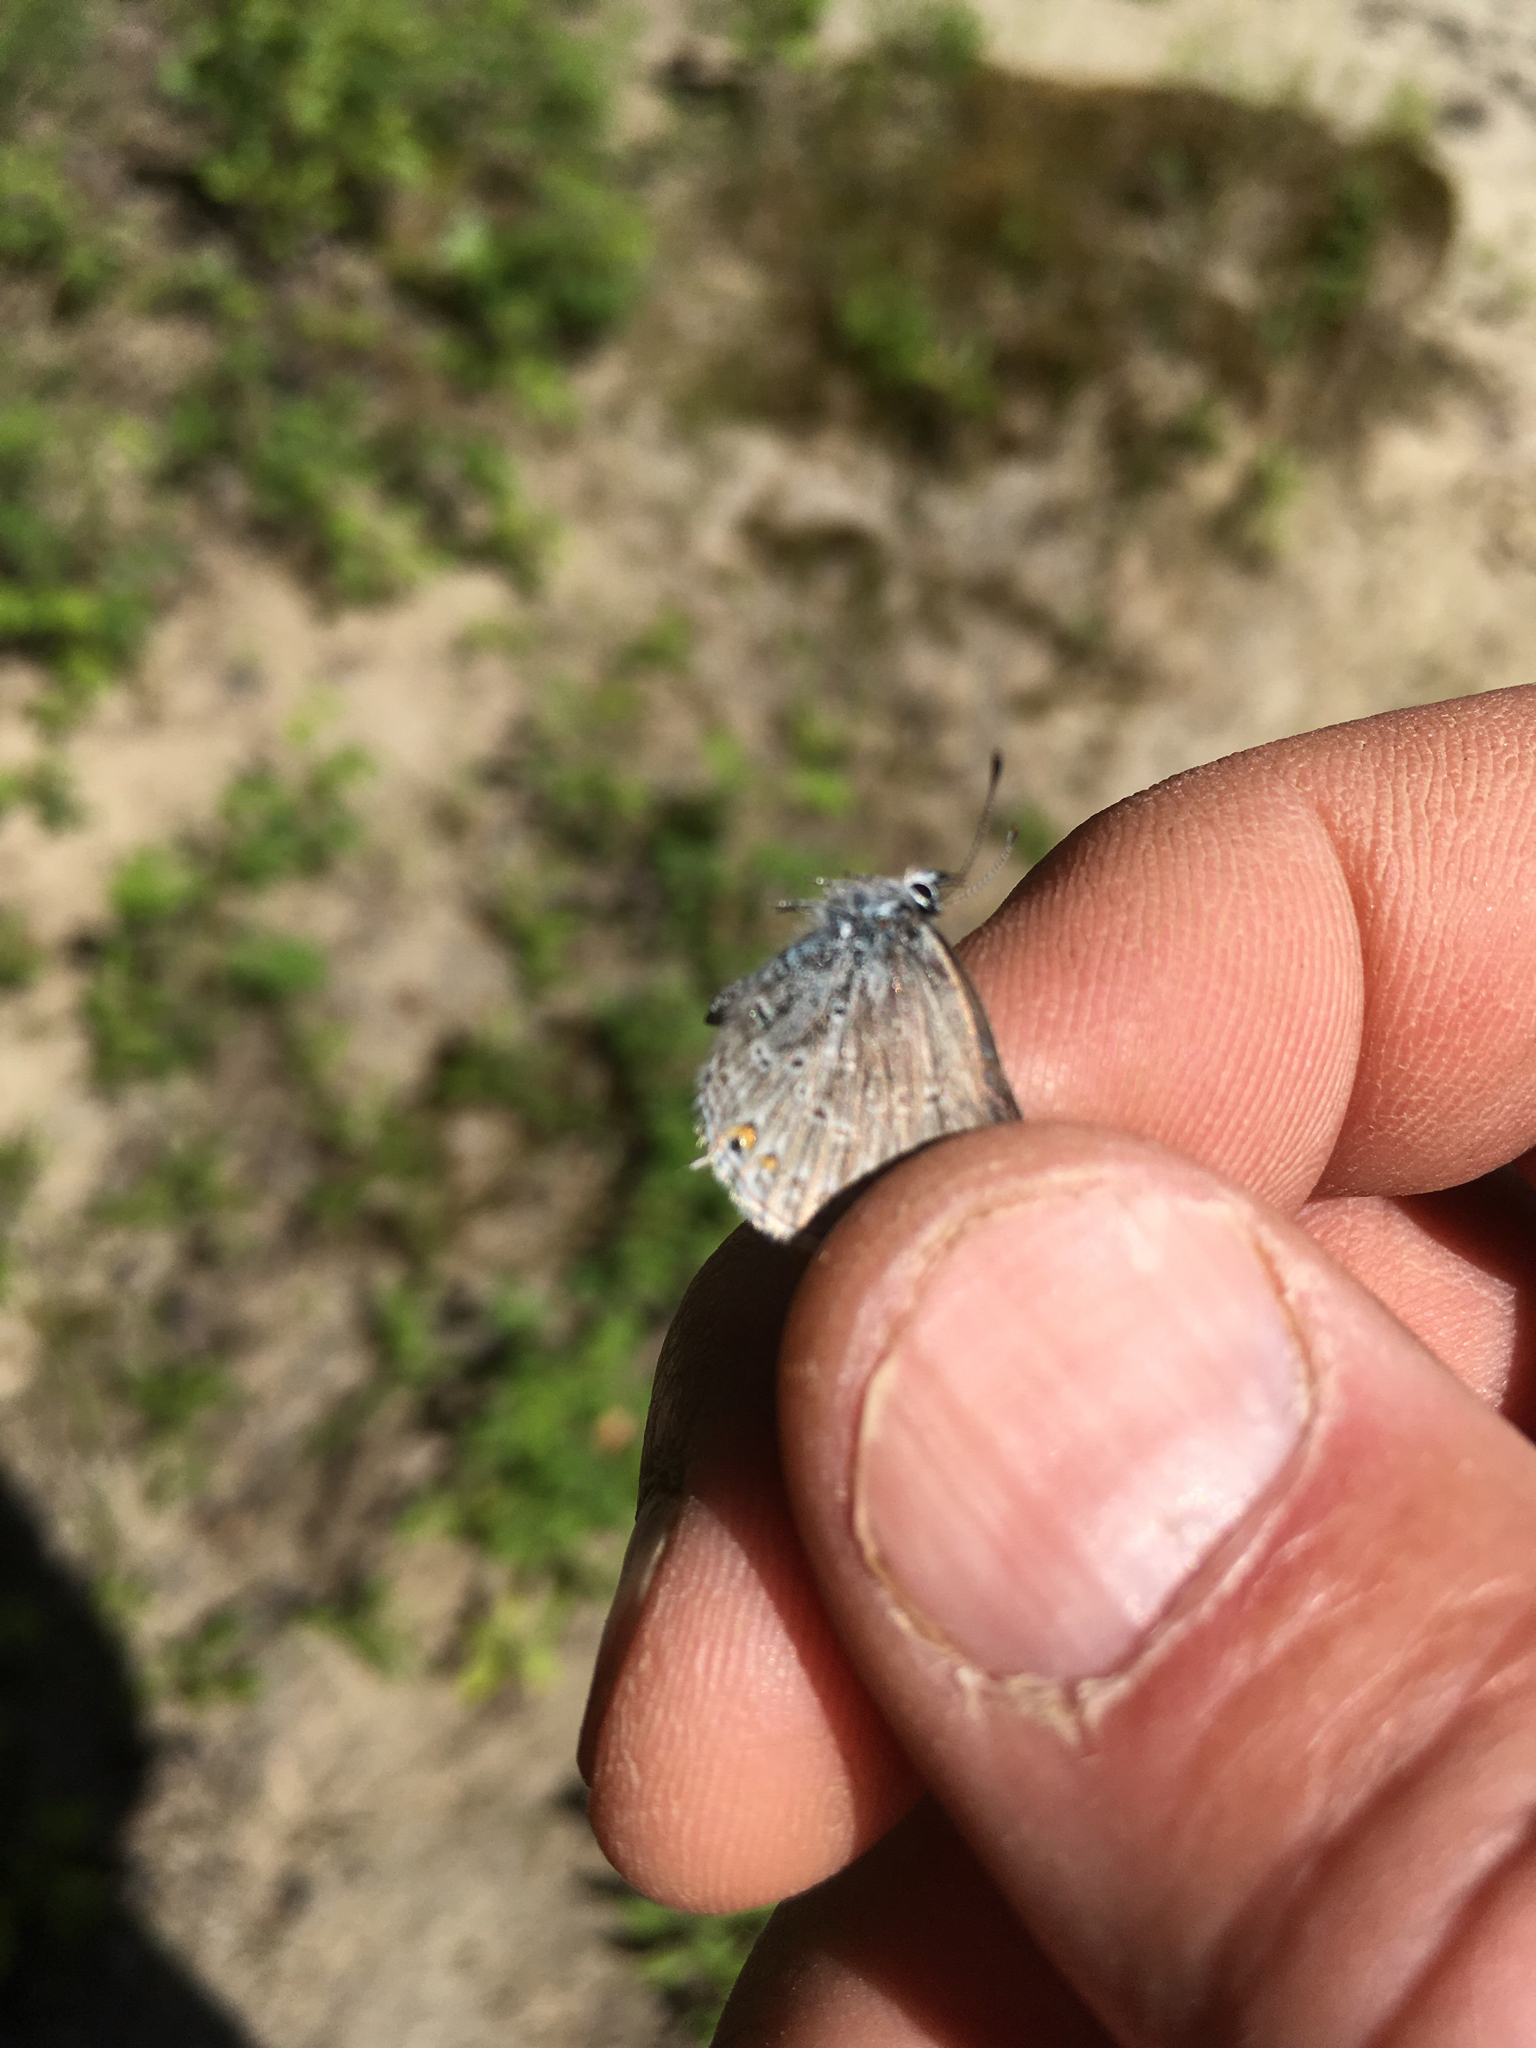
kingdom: Animalia
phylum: Arthropoda
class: Insecta
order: Lepidoptera
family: Lycaenidae
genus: Elkalyce
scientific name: Elkalyce amyntula
